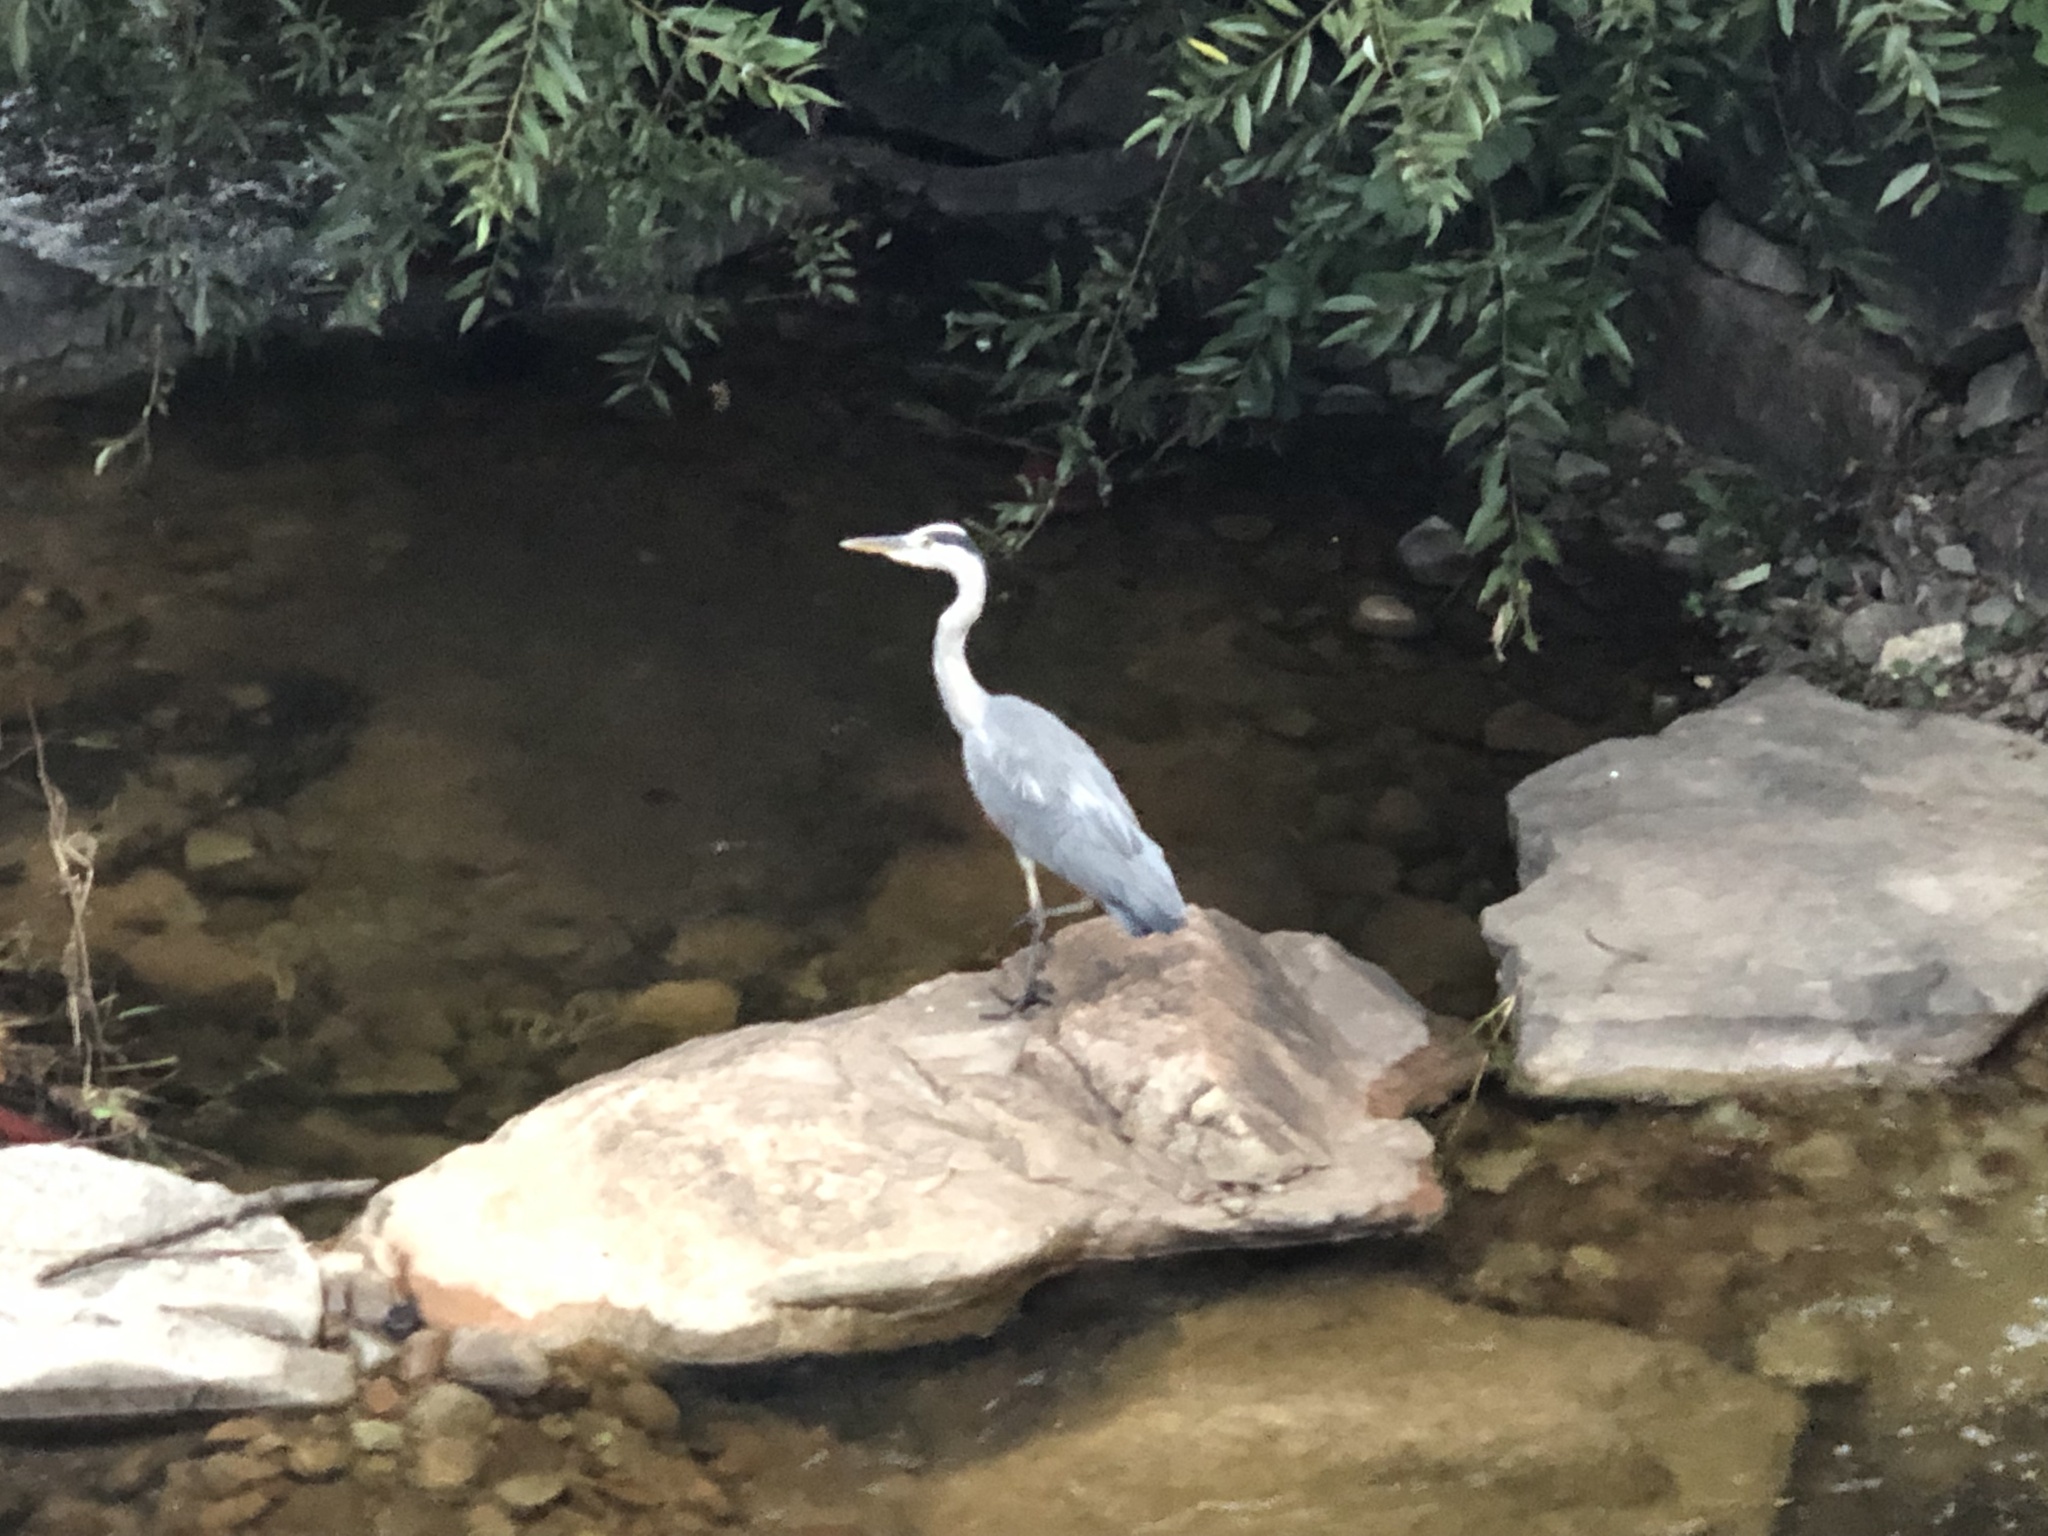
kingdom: Animalia
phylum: Chordata
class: Aves
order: Pelecaniformes
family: Ardeidae
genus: Ardea
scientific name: Ardea cinerea
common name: Grey heron
